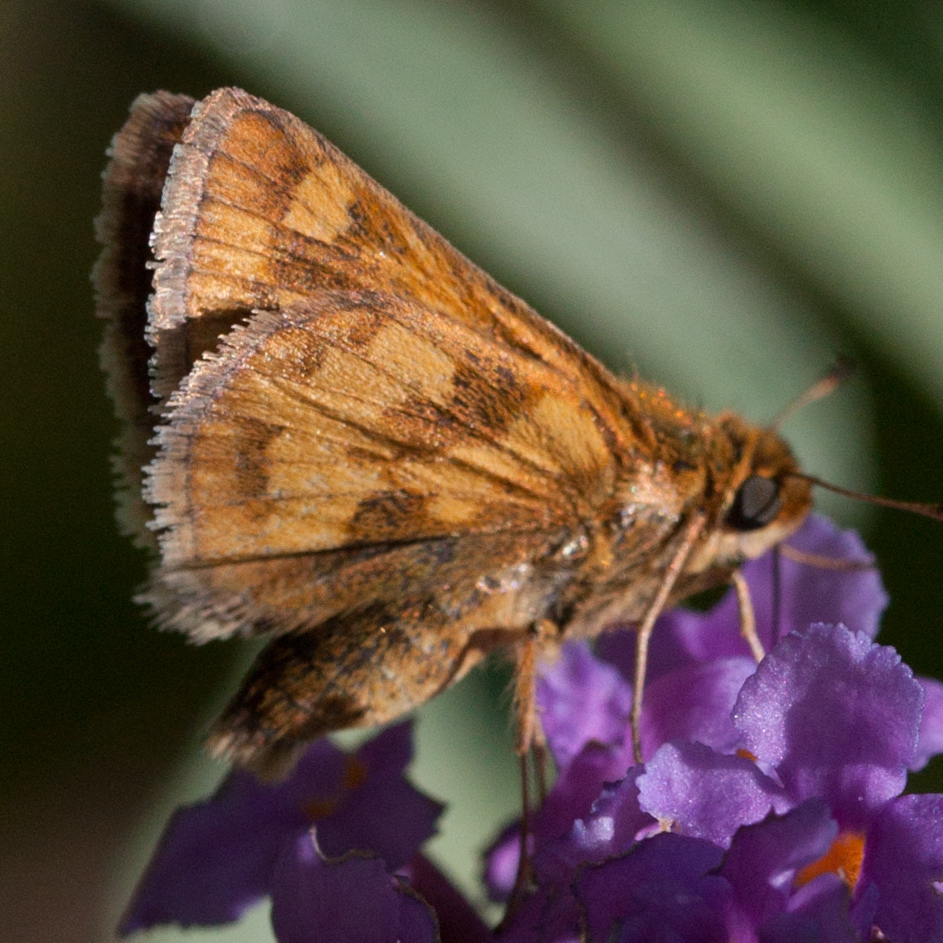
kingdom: Animalia
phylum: Arthropoda
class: Insecta
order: Lepidoptera
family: Hesperiidae
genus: Polites
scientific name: Polites coras
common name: Peck's skipper
